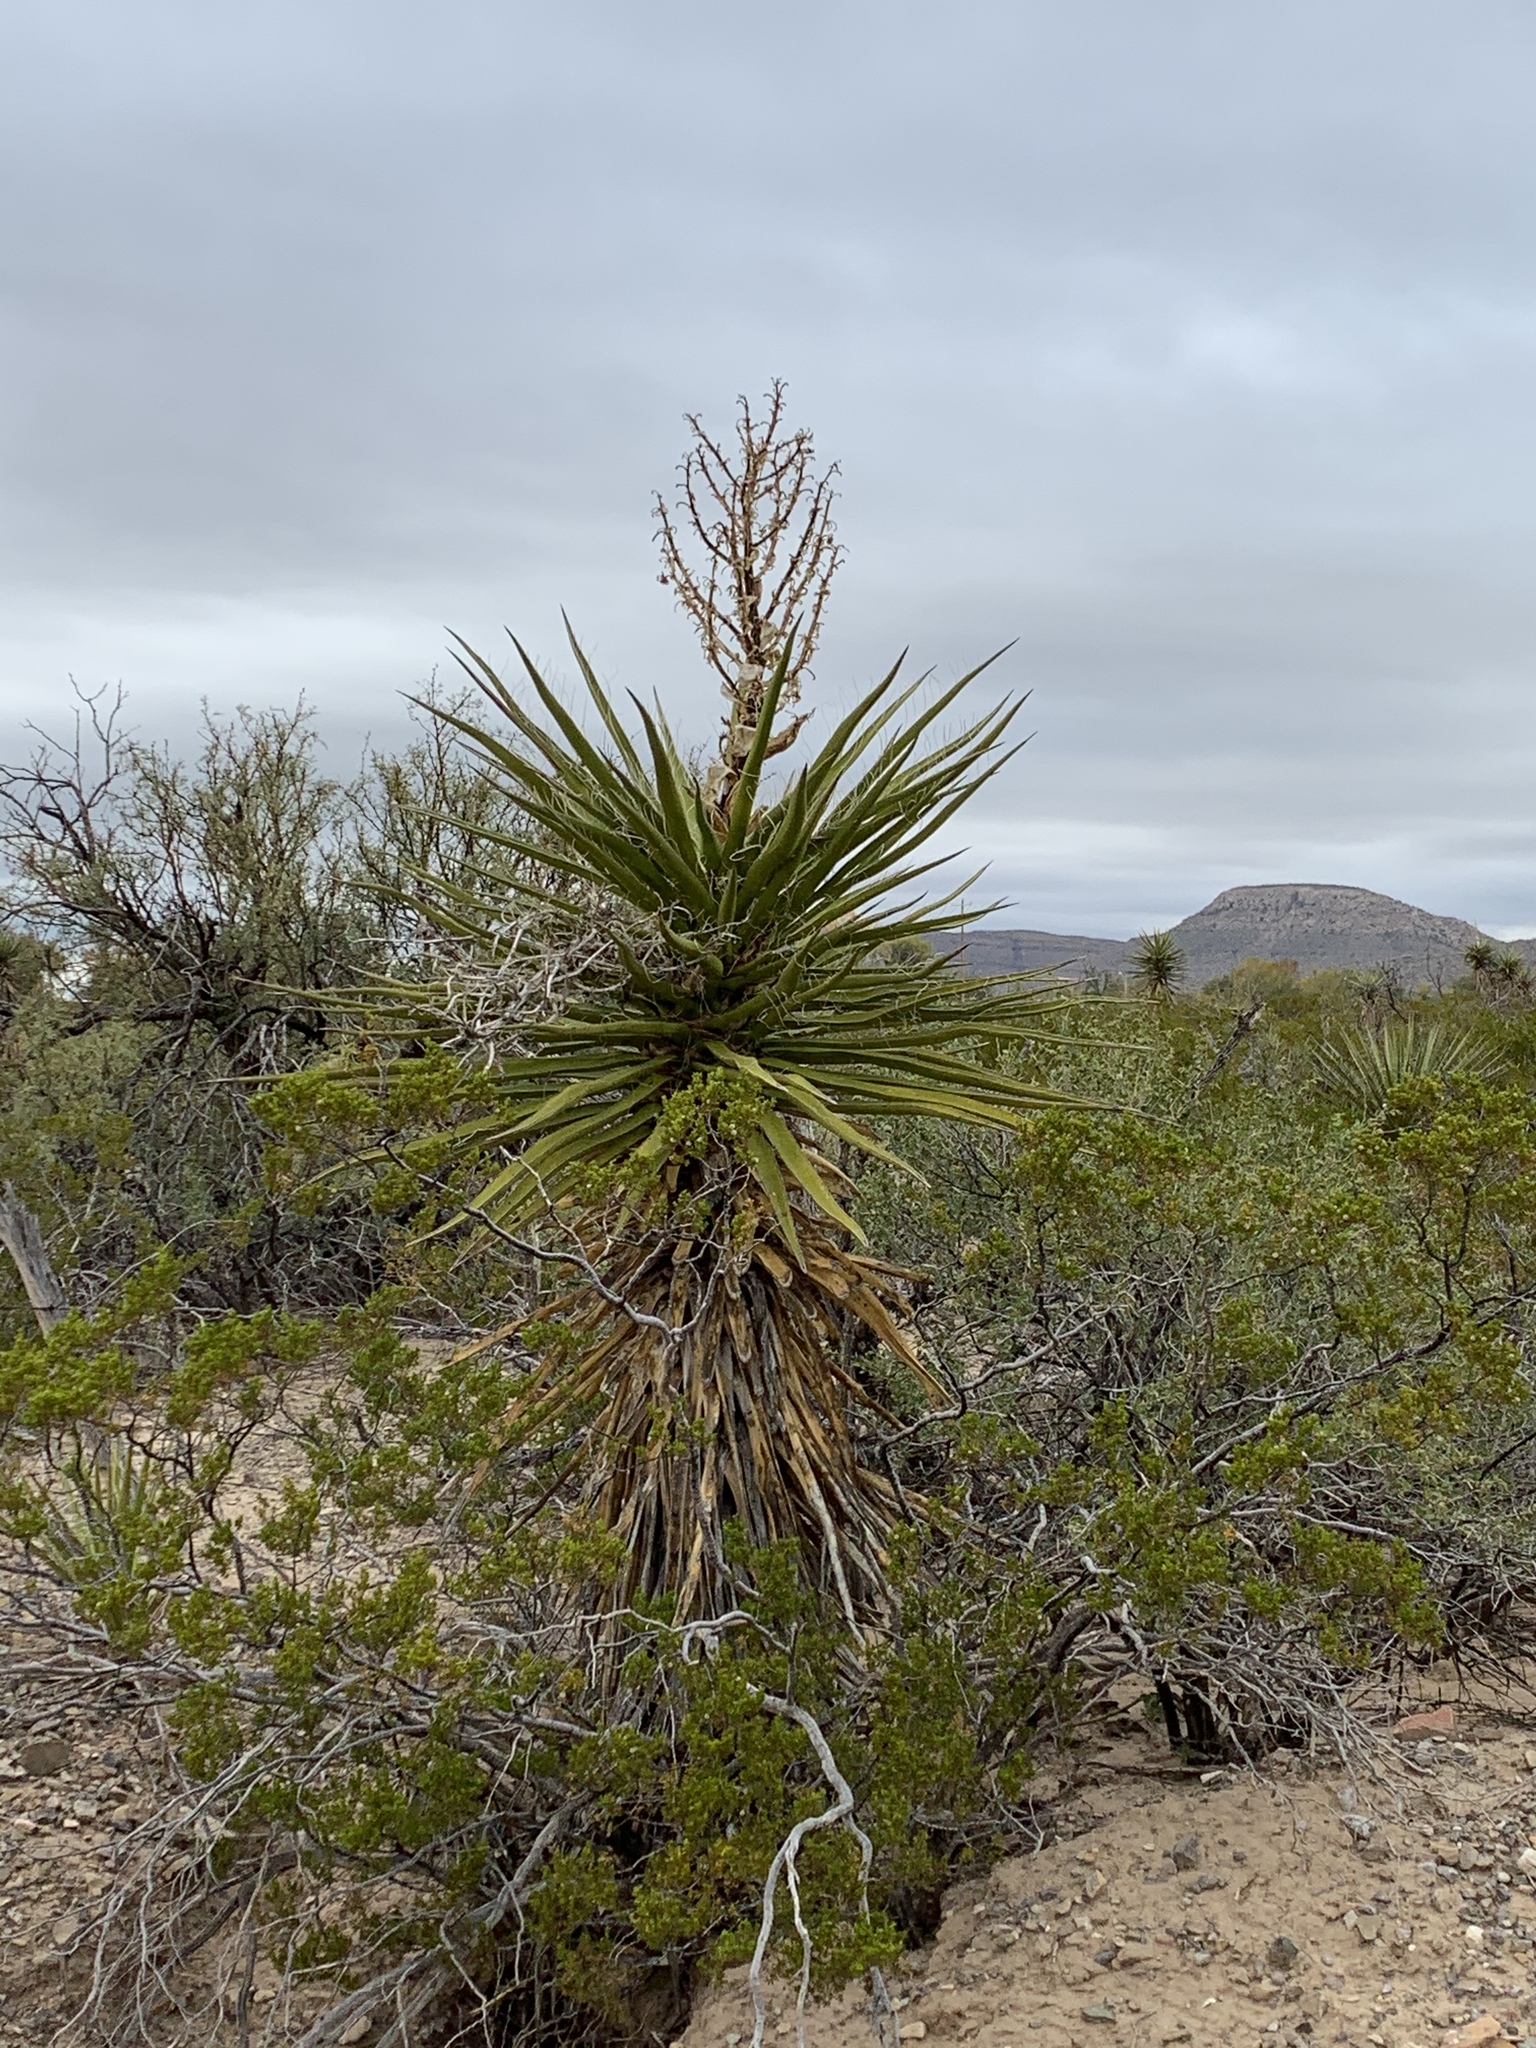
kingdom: Plantae
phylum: Tracheophyta
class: Liliopsida
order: Asparagales
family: Asparagaceae
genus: Yucca
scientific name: Yucca treculiana
